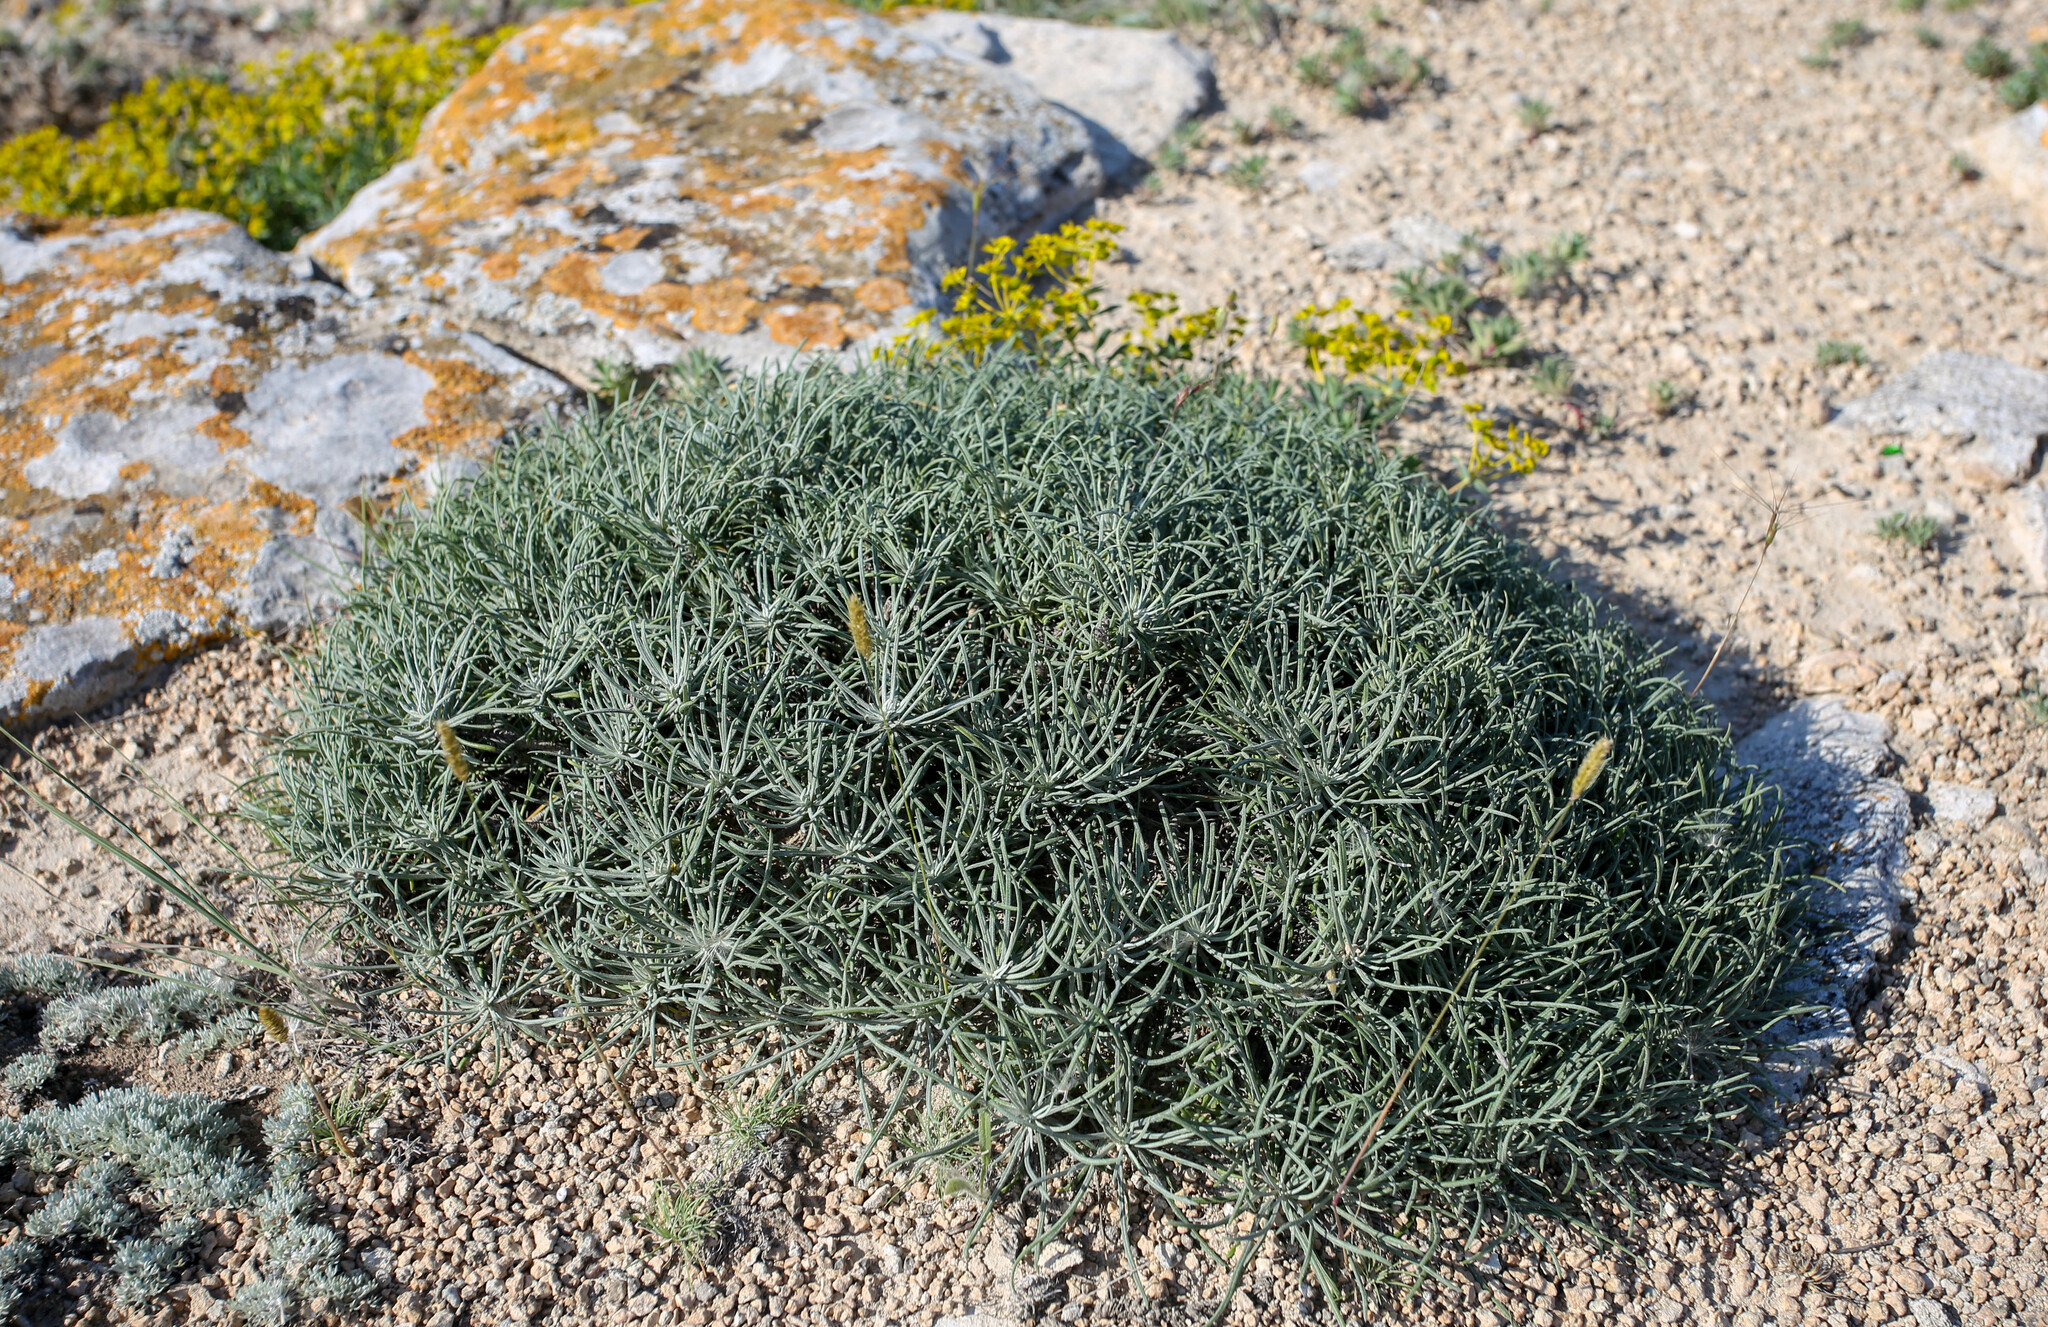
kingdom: Plantae
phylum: Tracheophyta
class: Magnoliopsida
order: Asterales
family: Asteraceae
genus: Jurinea
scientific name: Jurinea stoechadifolia
